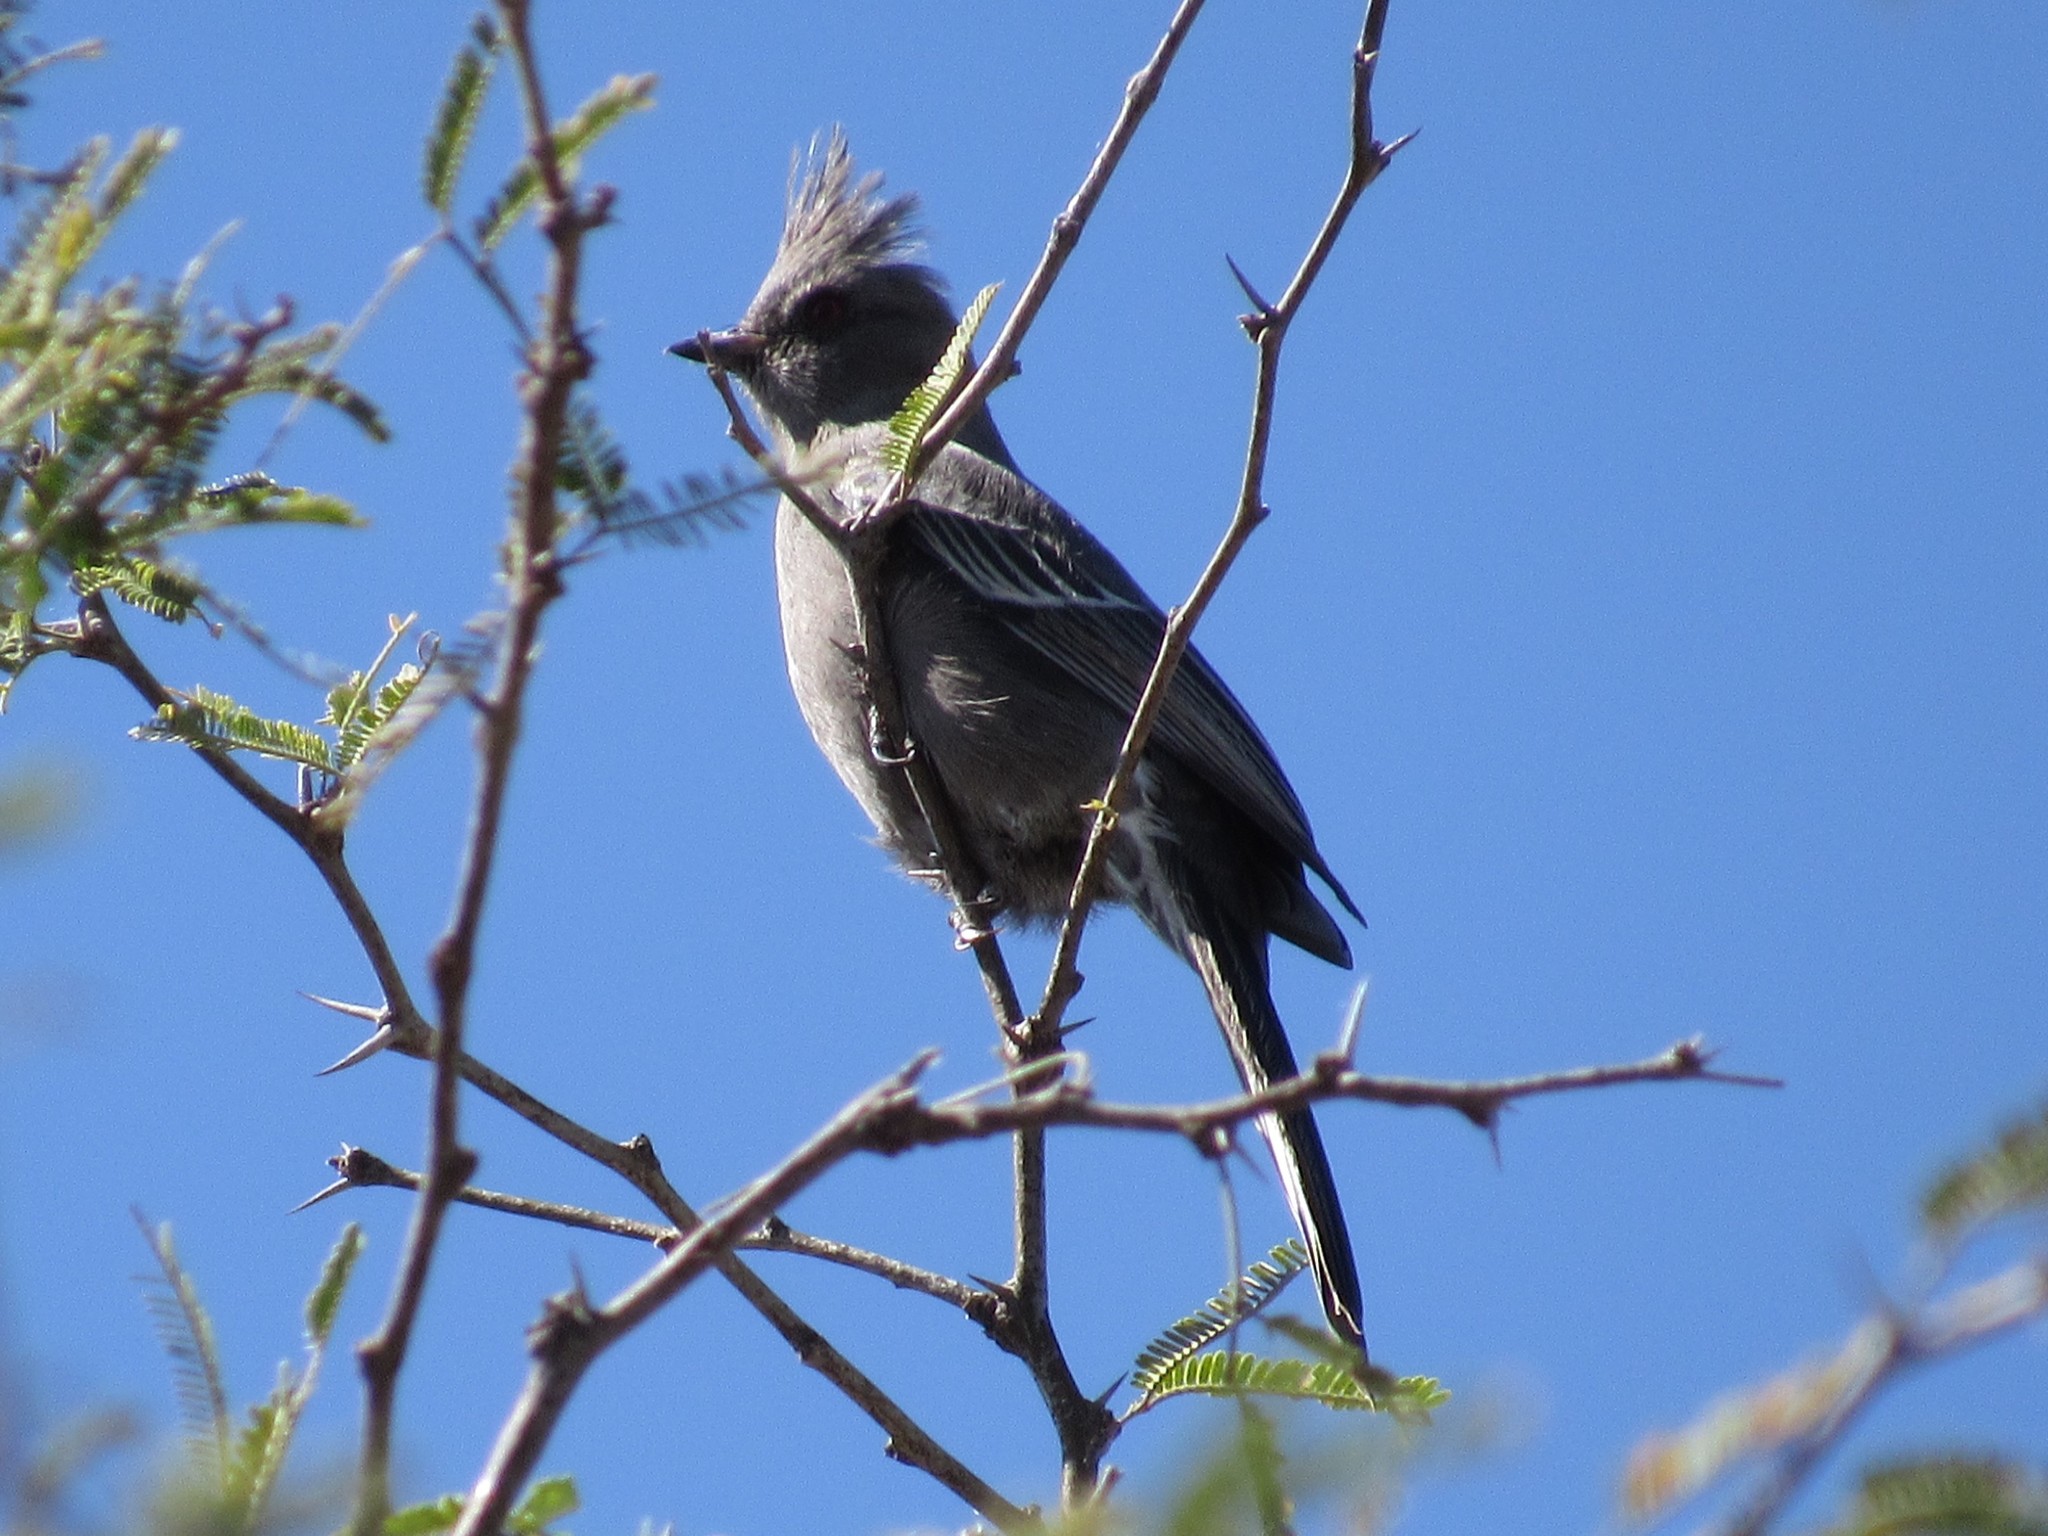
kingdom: Animalia
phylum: Chordata
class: Aves
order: Passeriformes
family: Ptilogonatidae
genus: Phainopepla
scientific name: Phainopepla nitens
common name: Phainopepla
